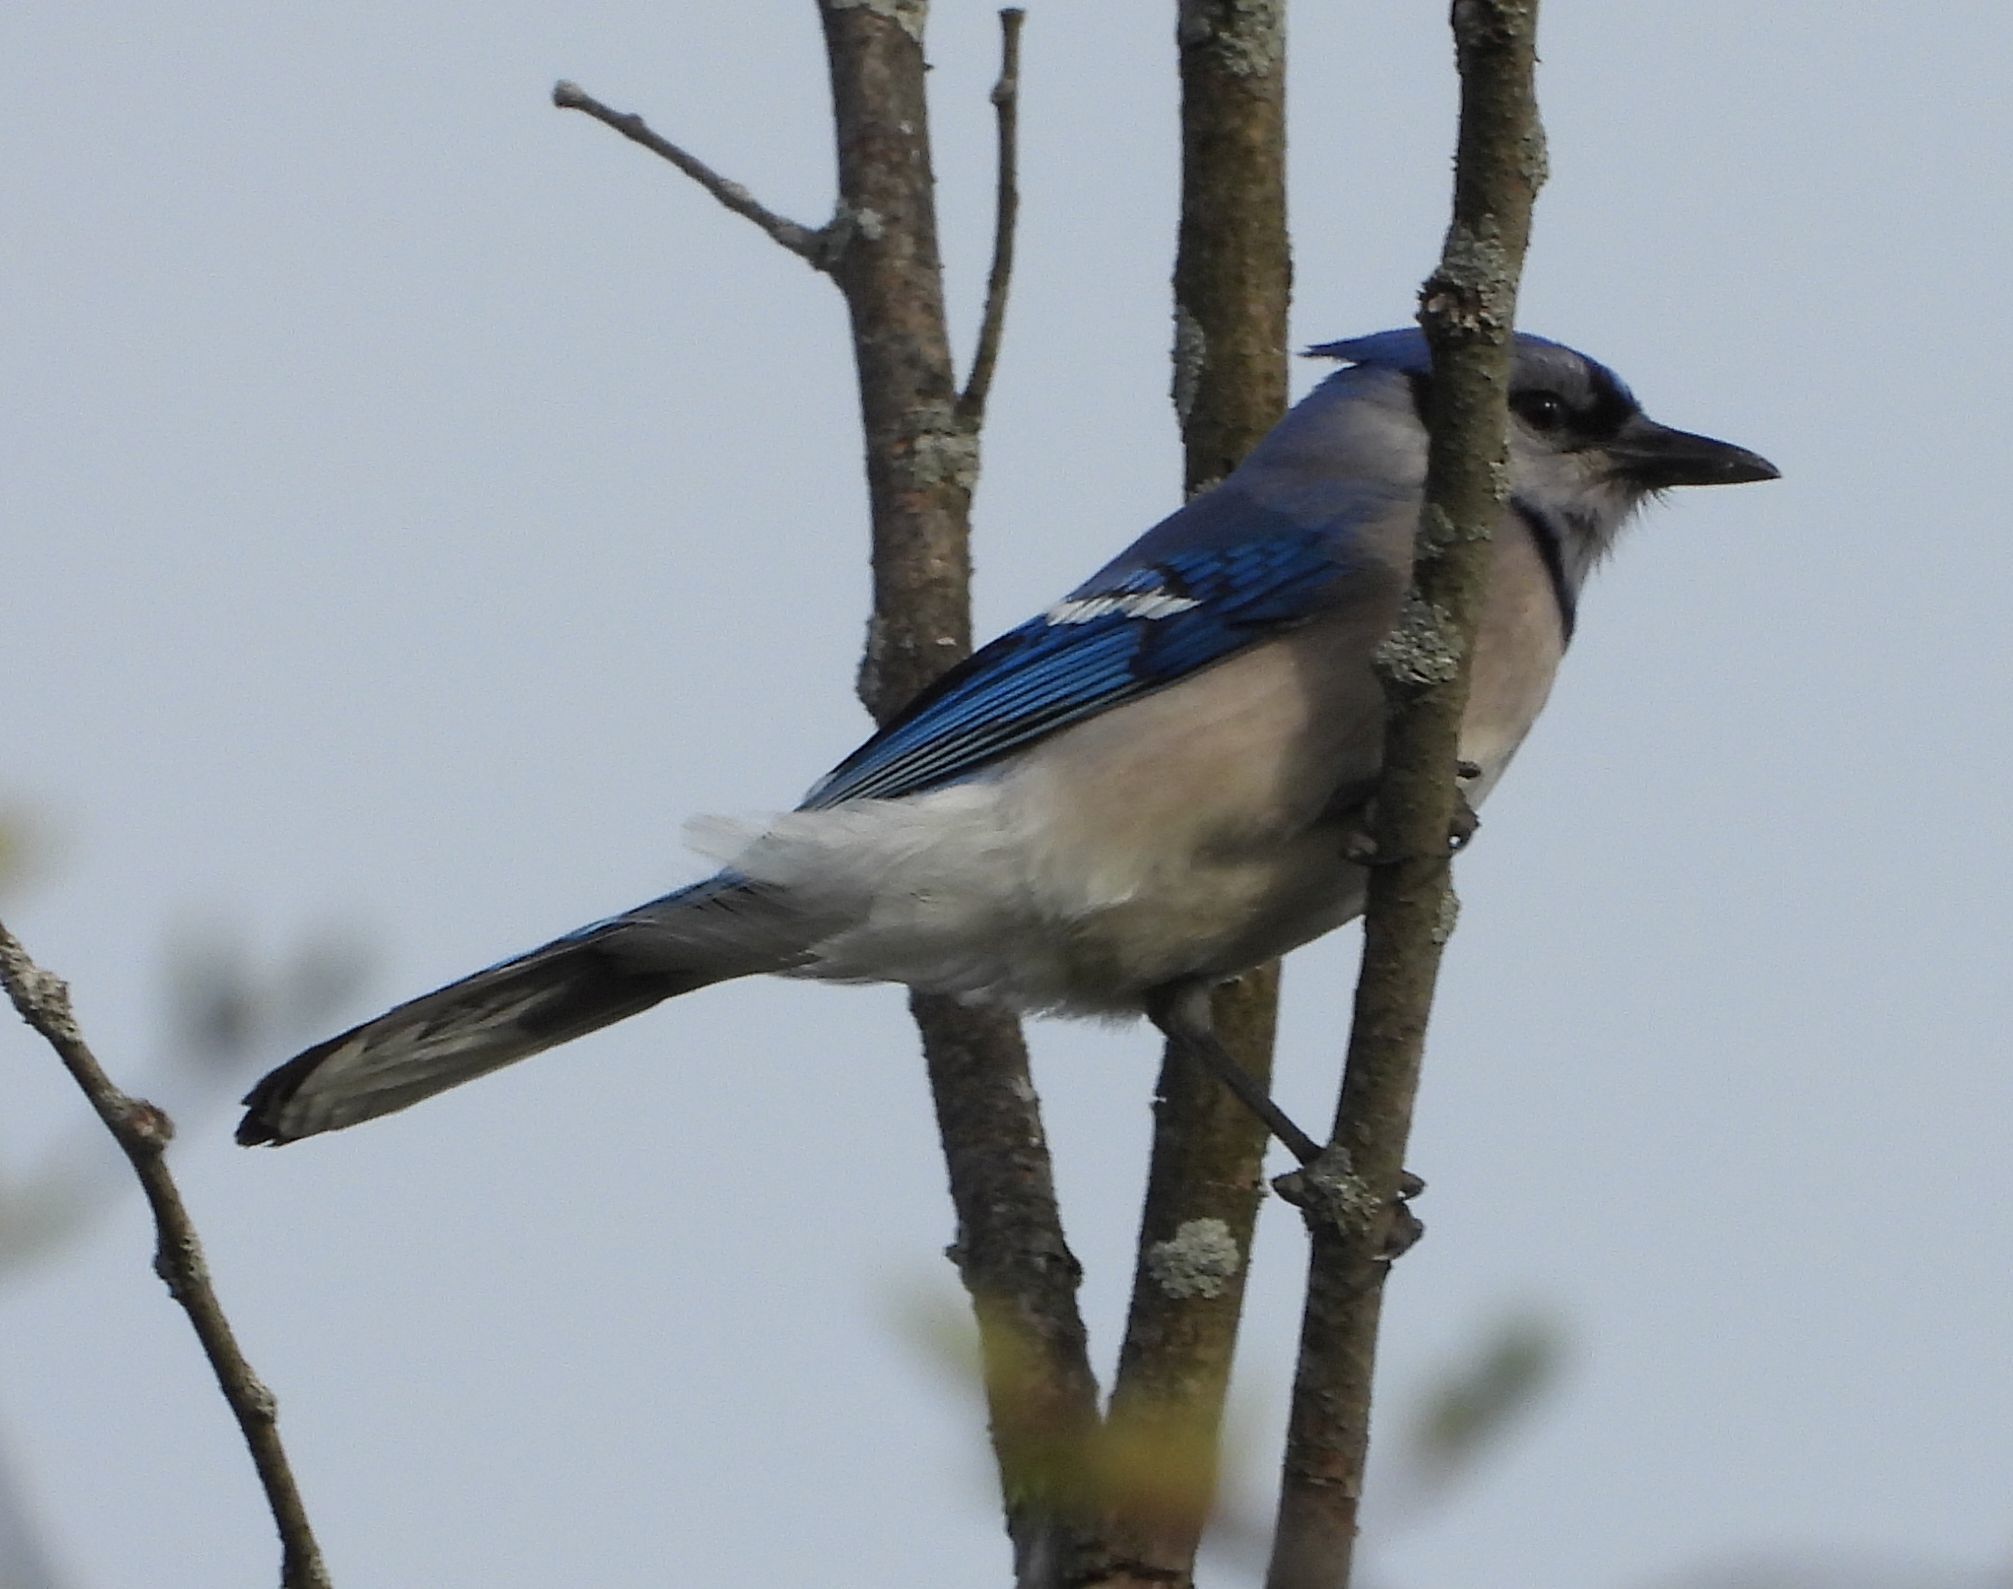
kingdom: Animalia
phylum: Chordata
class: Aves
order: Passeriformes
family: Corvidae
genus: Cyanocitta
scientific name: Cyanocitta cristata
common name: Blue jay
